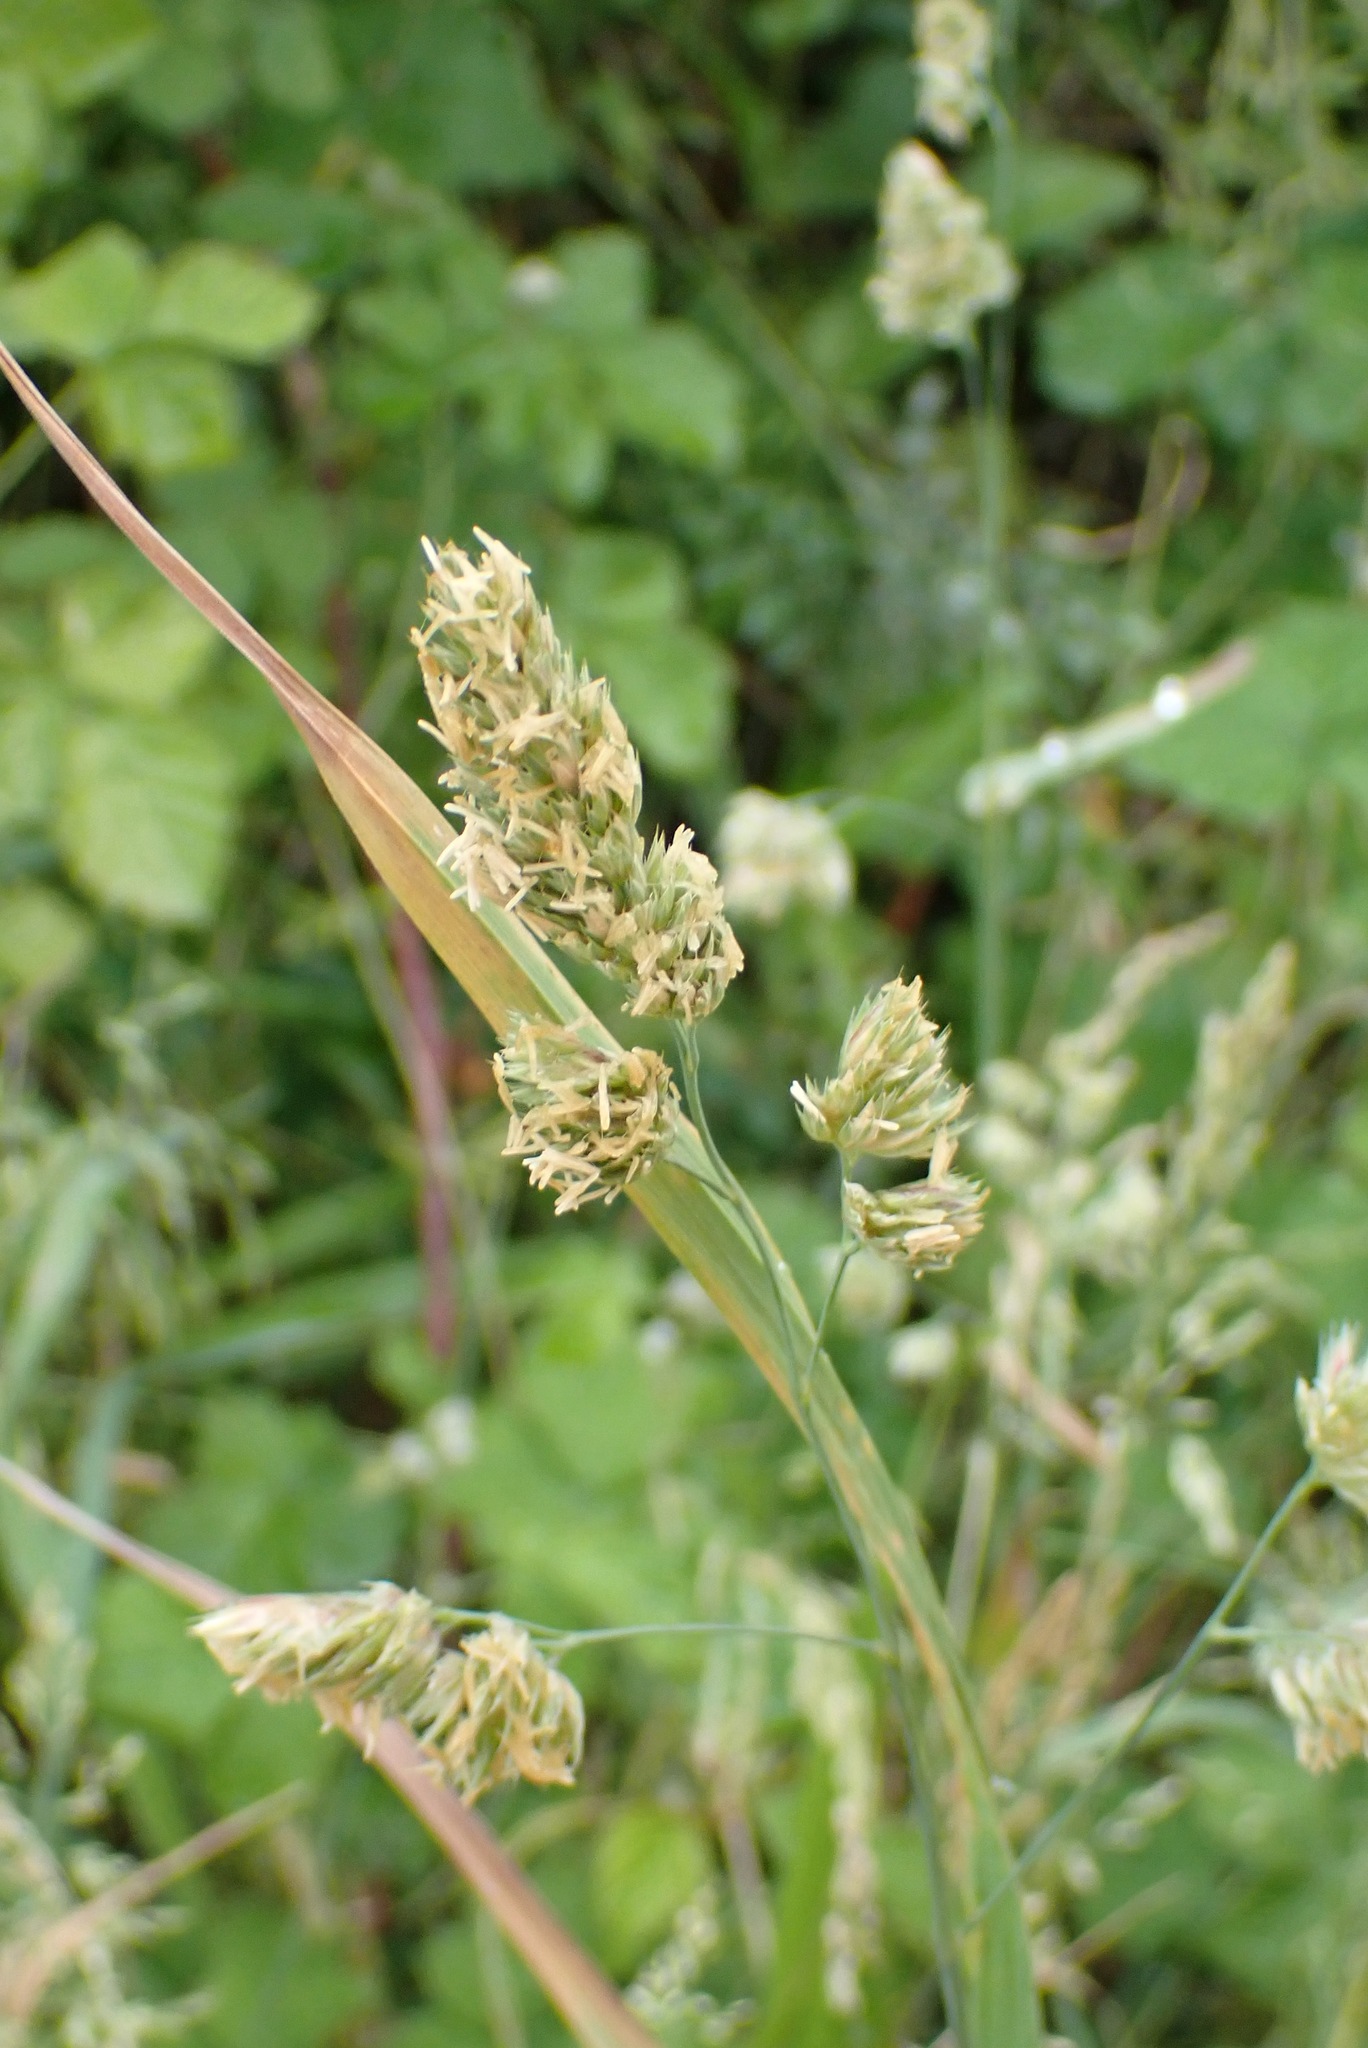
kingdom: Plantae
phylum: Tracheophyta
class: Liliopsida
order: Poales
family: Poaceae
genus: Dactylis
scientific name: Dactylis glomerata
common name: Orchardgrass
